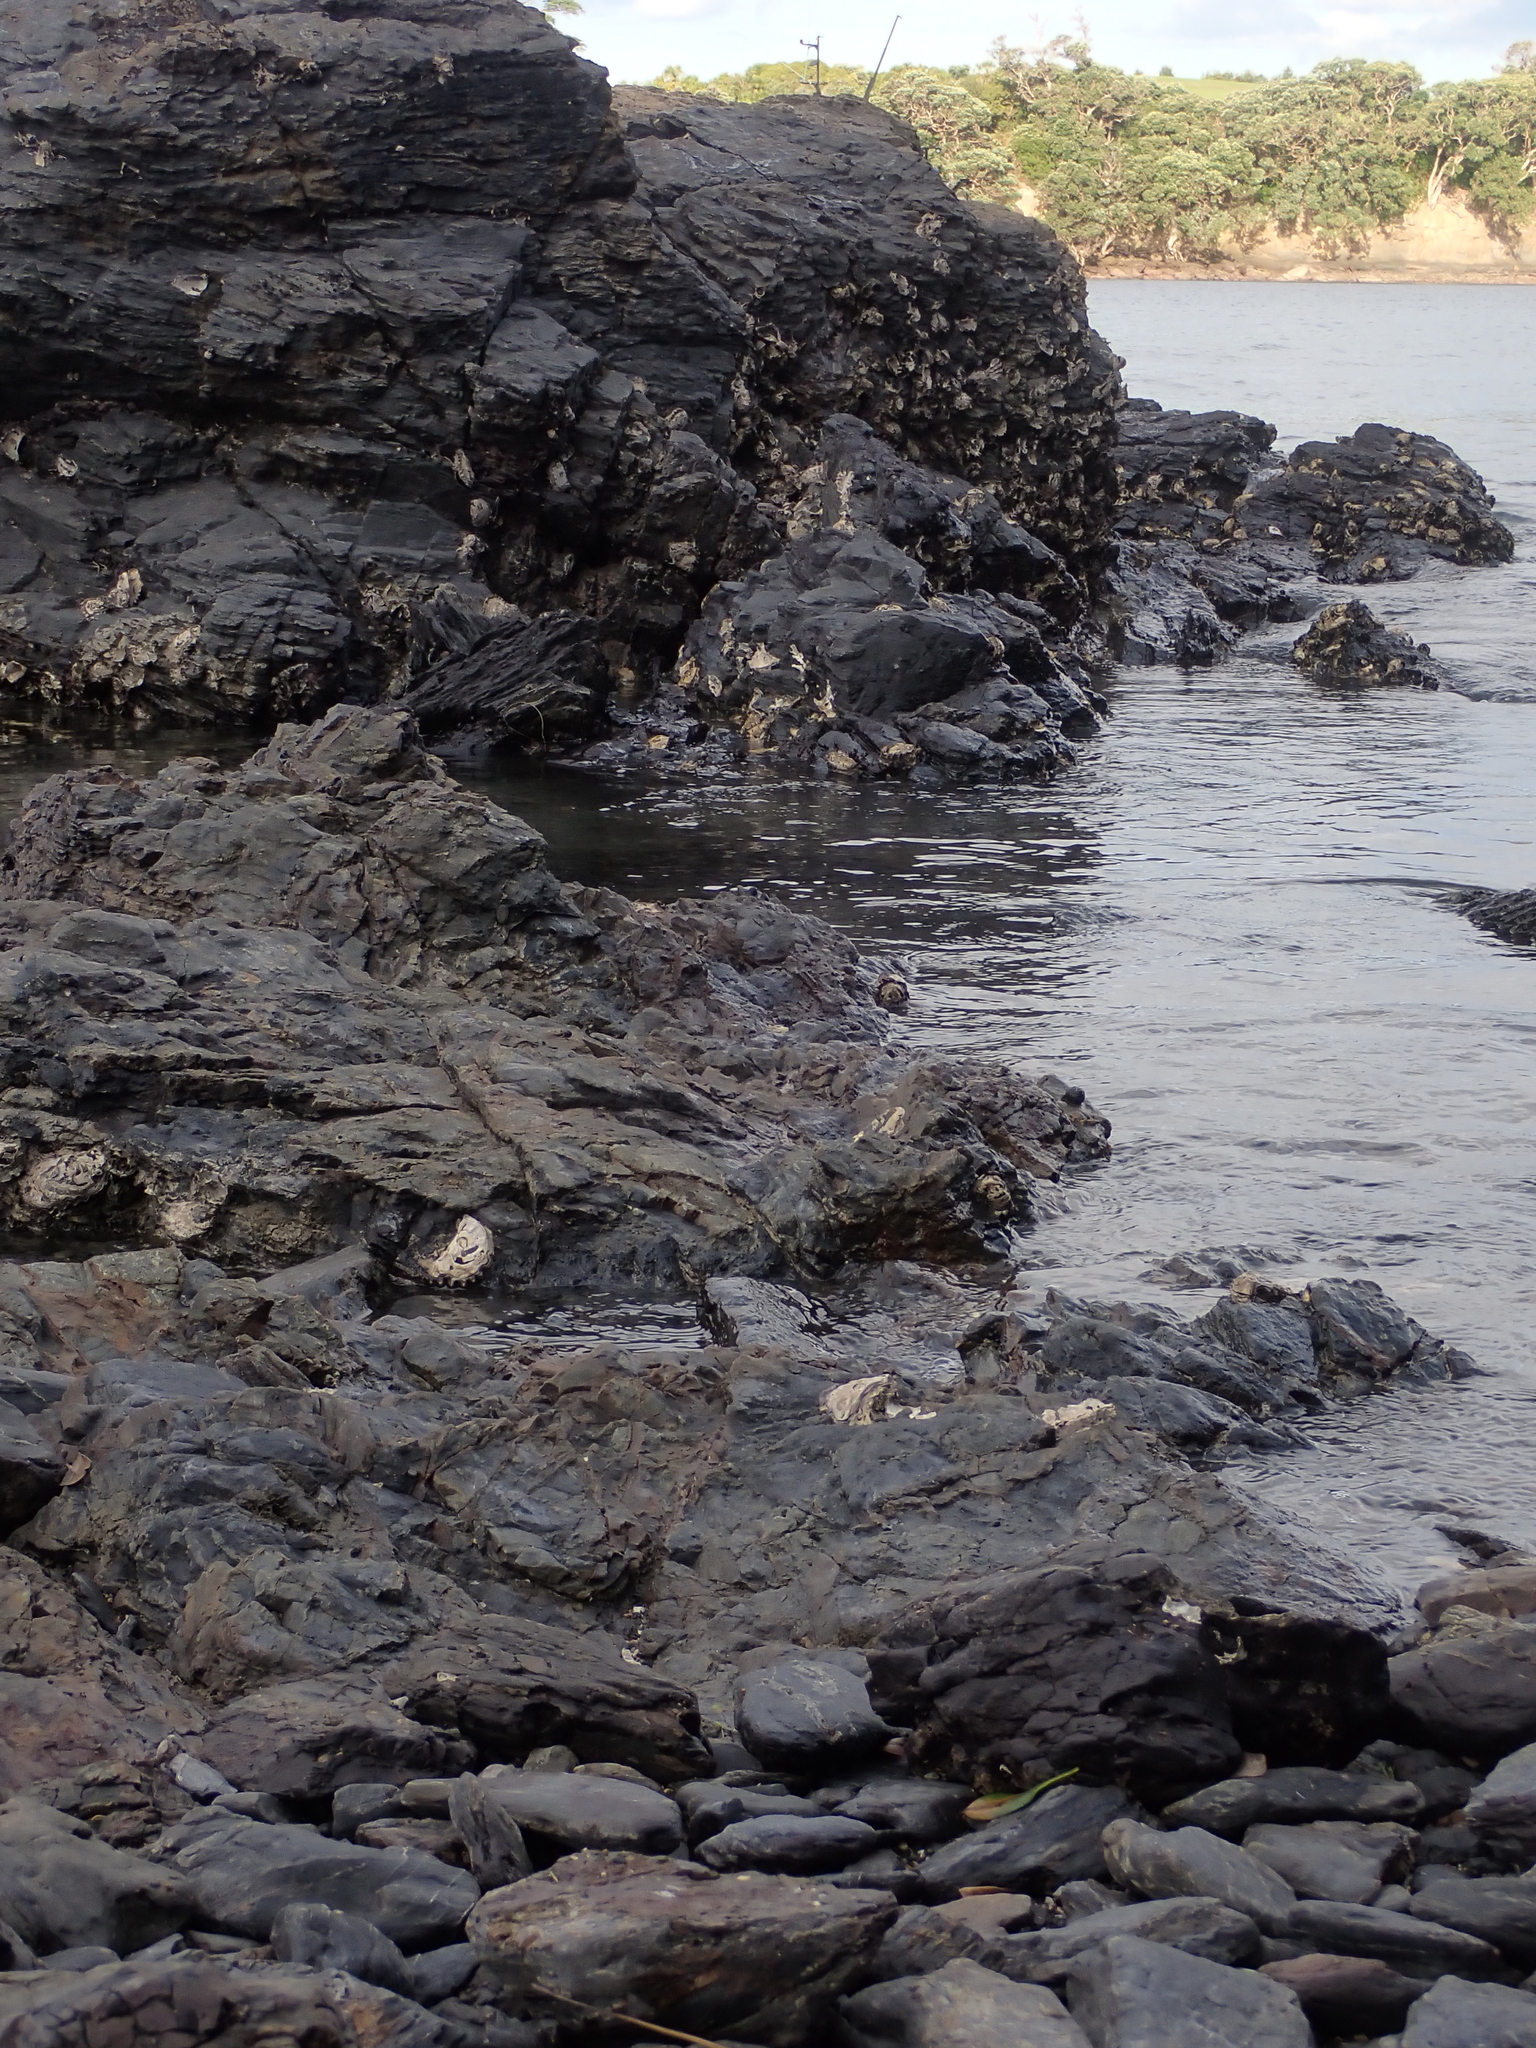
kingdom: Animalia
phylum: Mollusca
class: Gastropoda
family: Lottiidae
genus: Atalacmea
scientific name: Atalacmea fragilis
